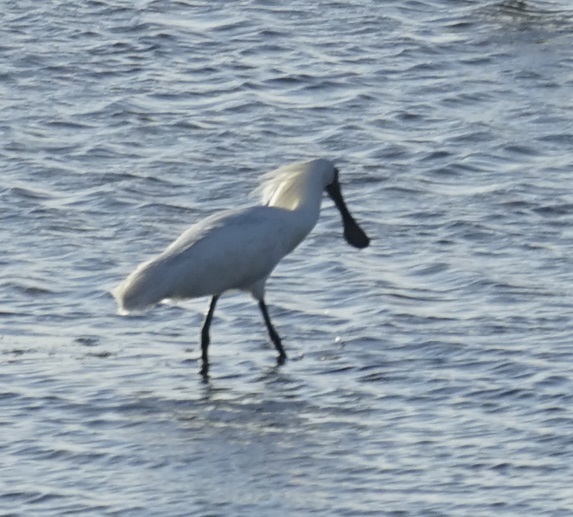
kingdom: Animalia
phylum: Chordata
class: Aves
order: Pelecaniformes
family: Threskiornithidae
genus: Platalea
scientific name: Platalea regia
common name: Royal spoonbill
